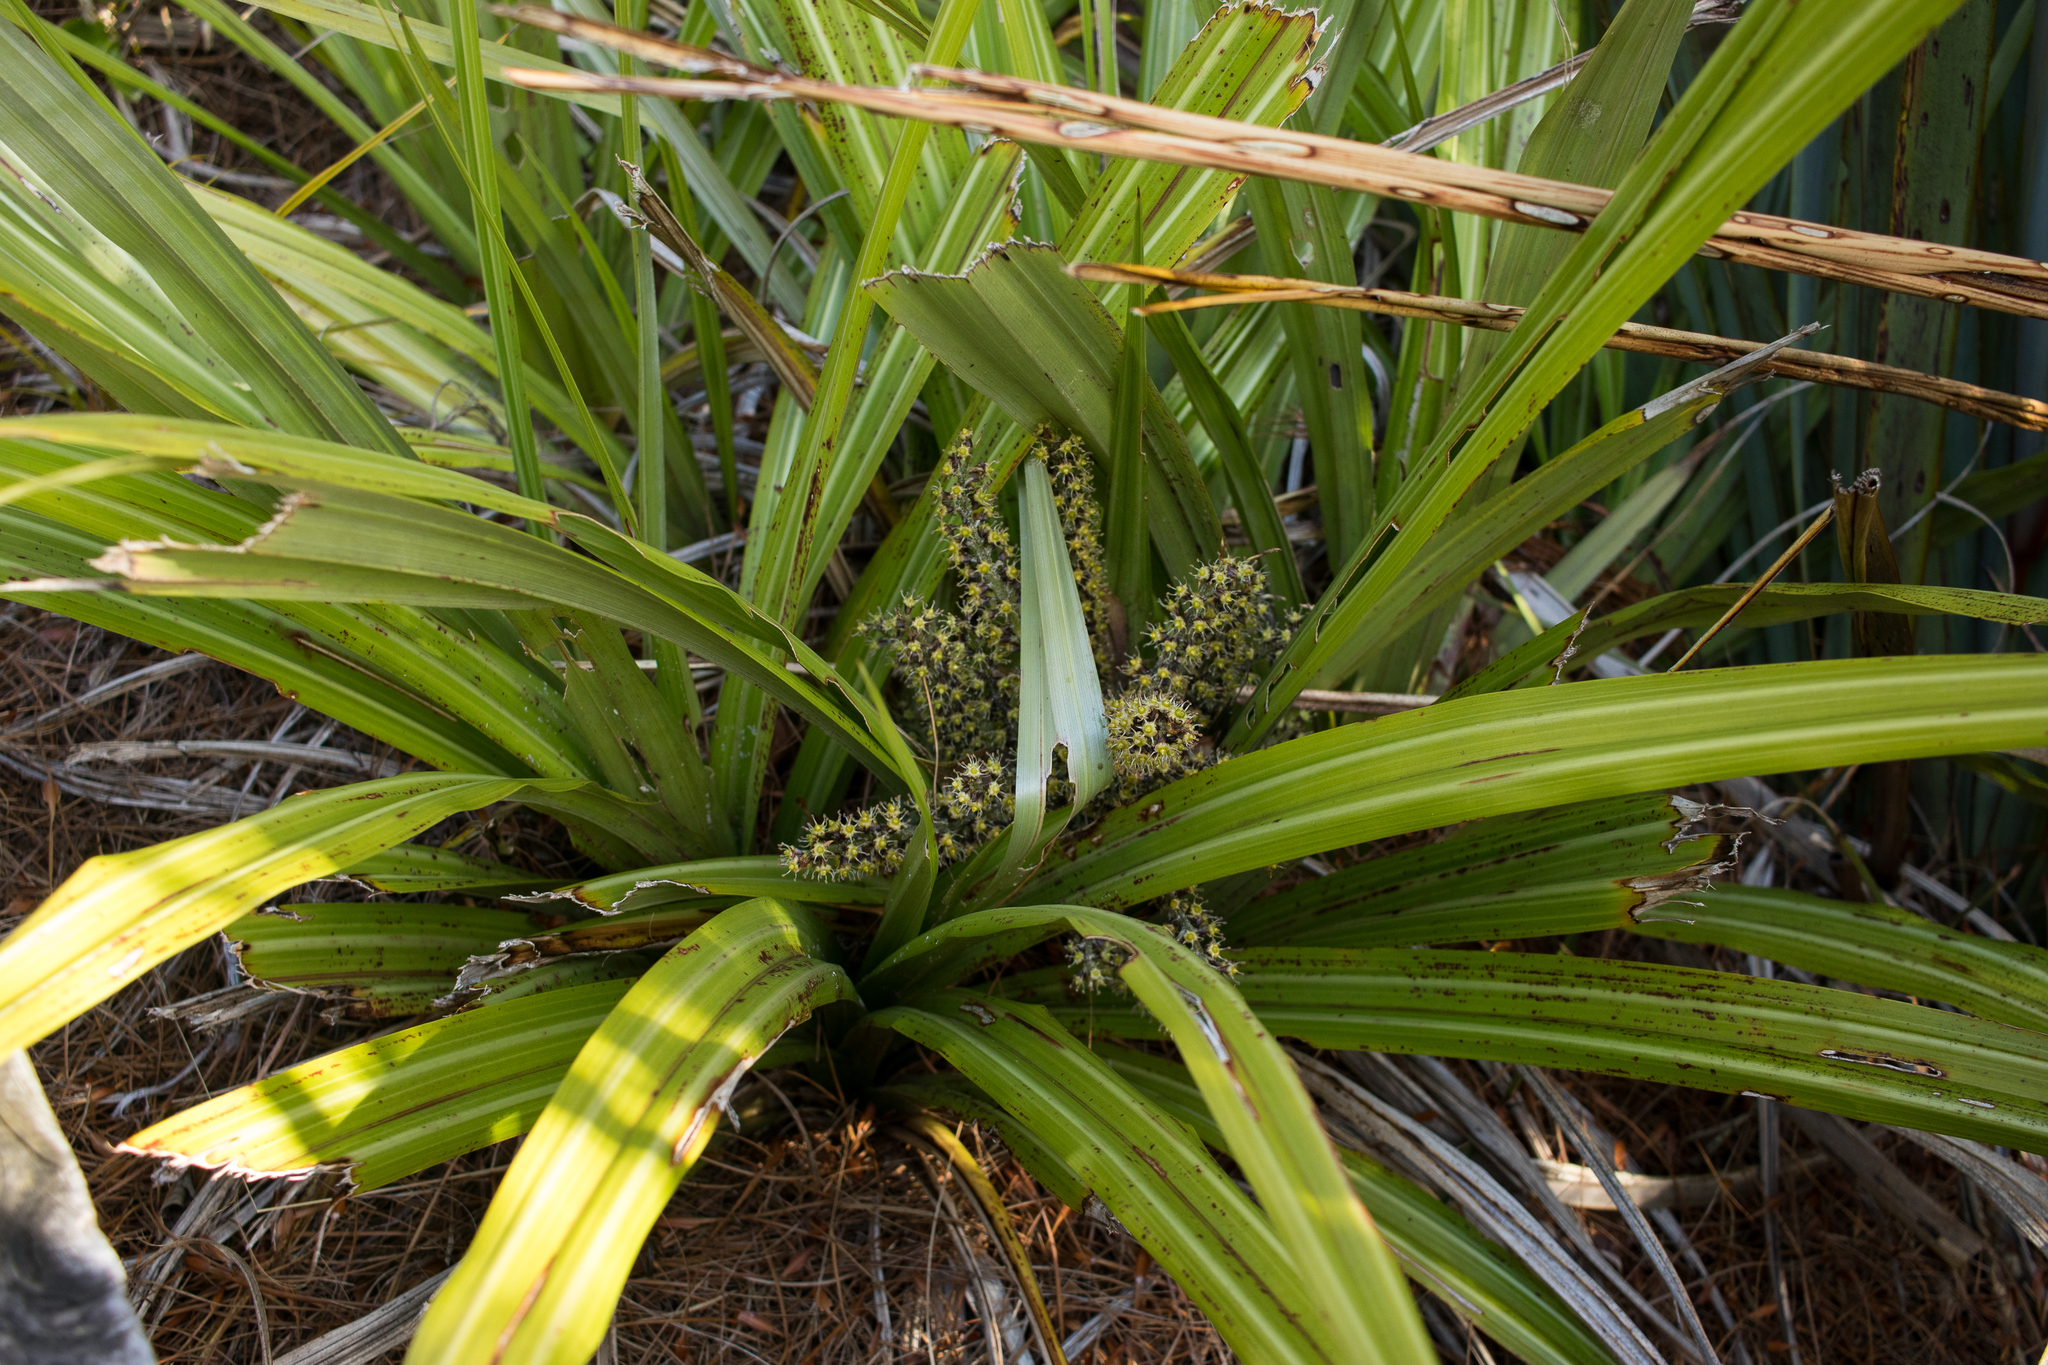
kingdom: Plantae
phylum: Tracheophyta
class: Liliopsida
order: Asparagales
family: Asteliaceae
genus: Astelia
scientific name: Astelia fragrans
